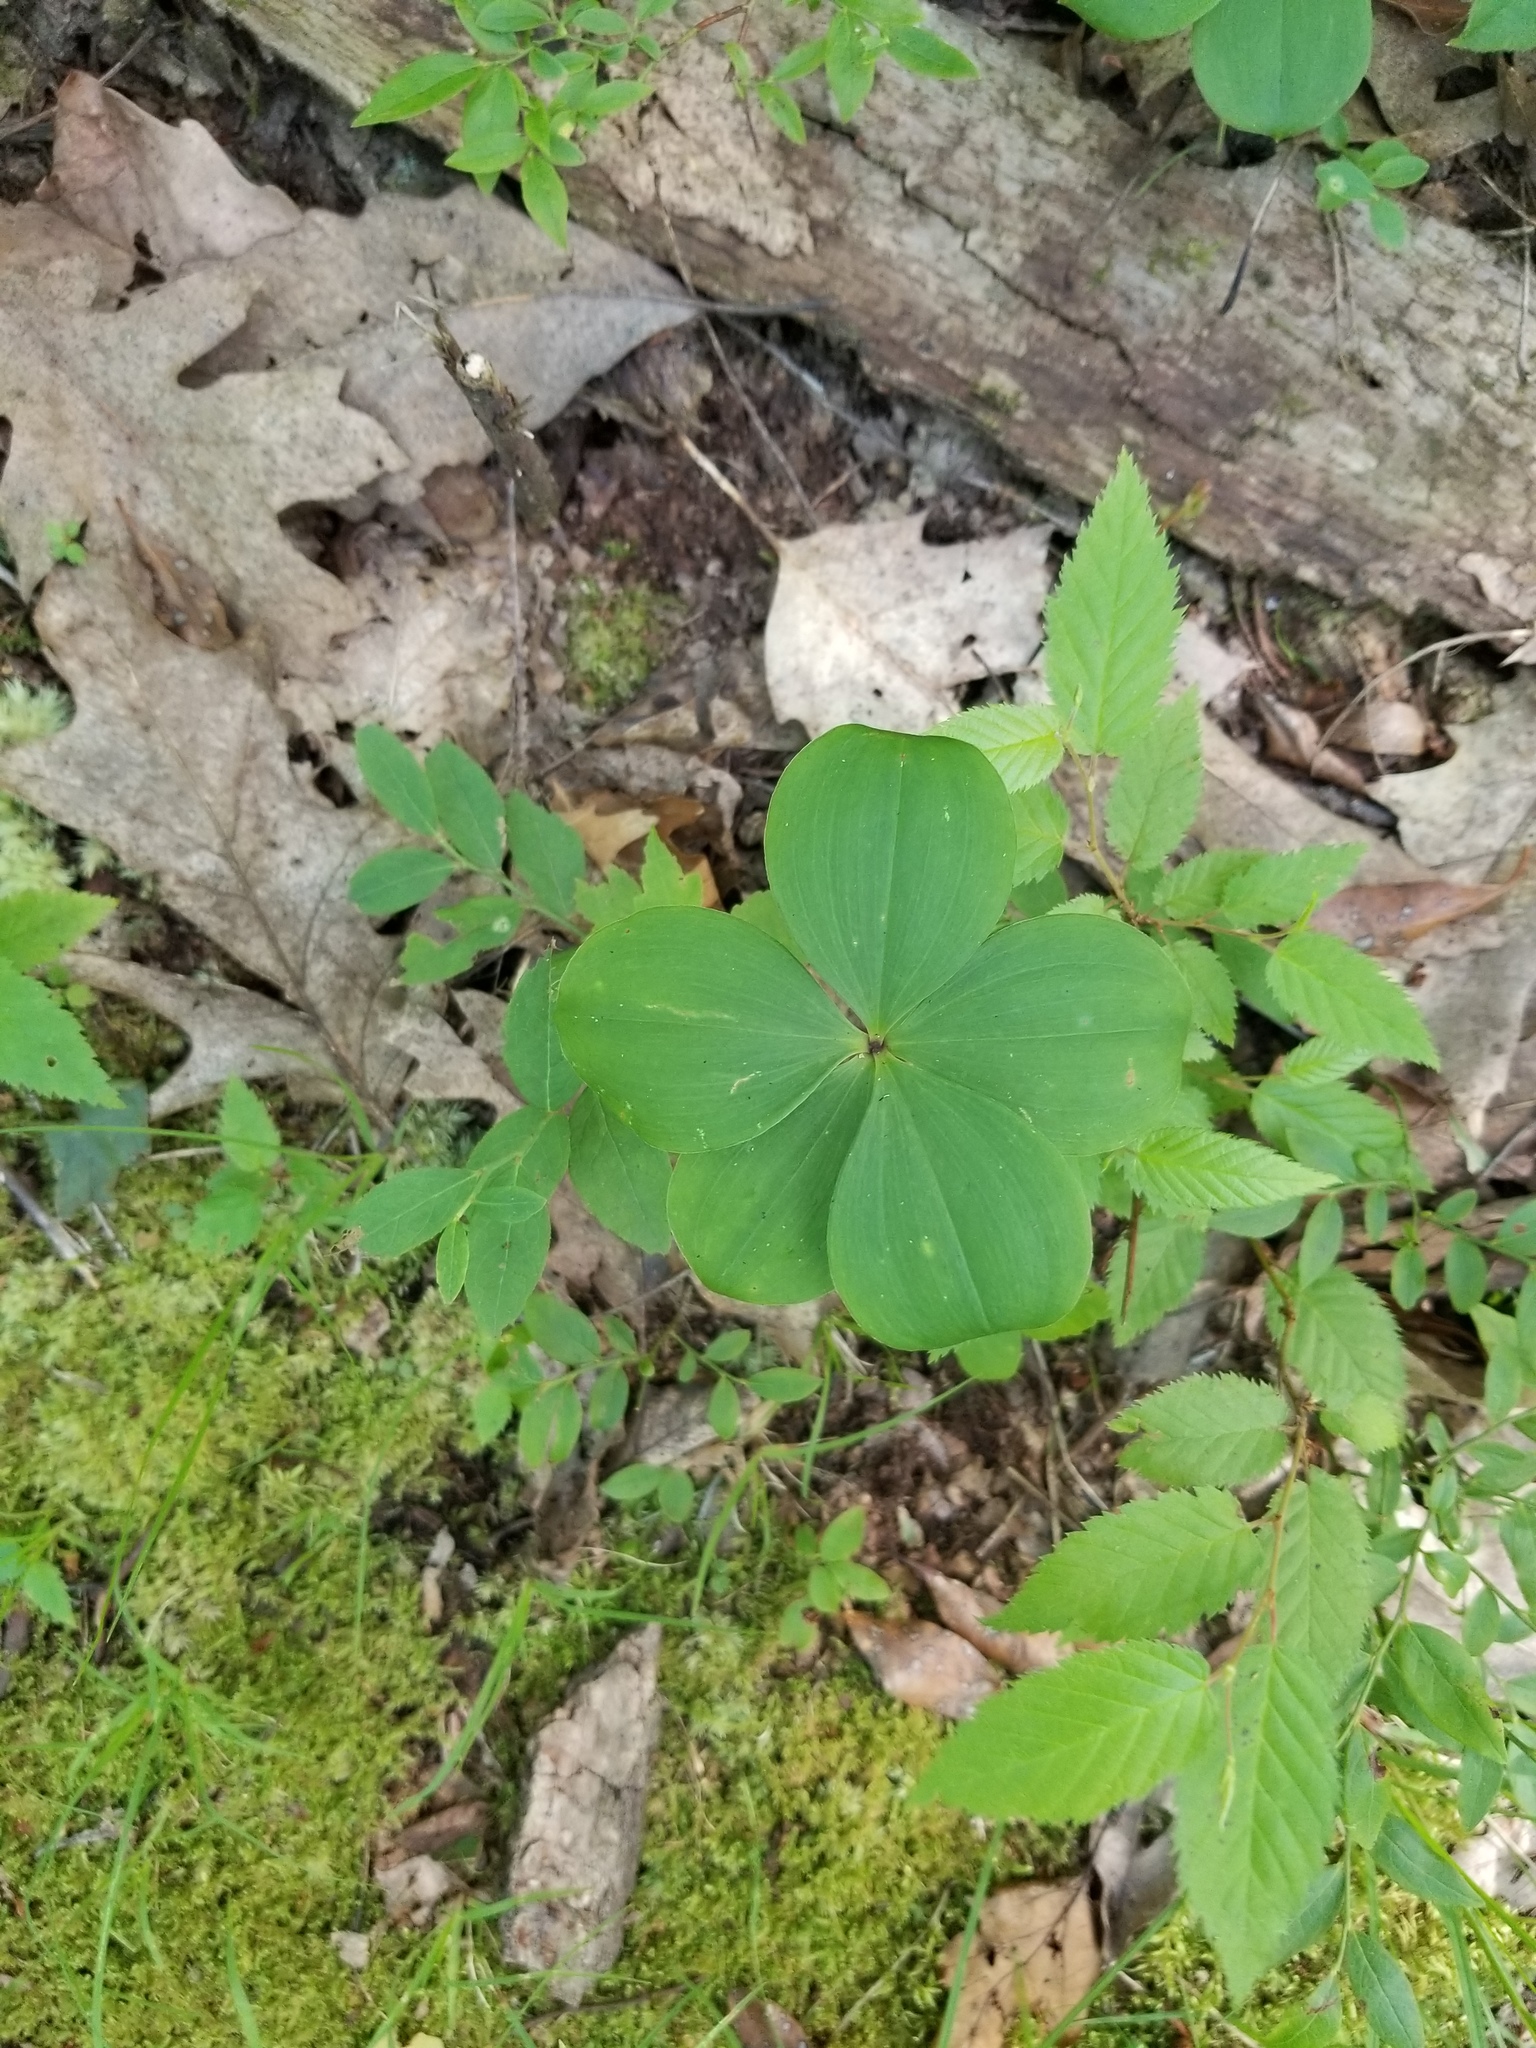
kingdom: Plantae
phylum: Tracheophyta
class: Liliopsida
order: Asparagales
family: Orchidaceae
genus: Isotria
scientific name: Isotria verticillata
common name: Large whorled pogonia
